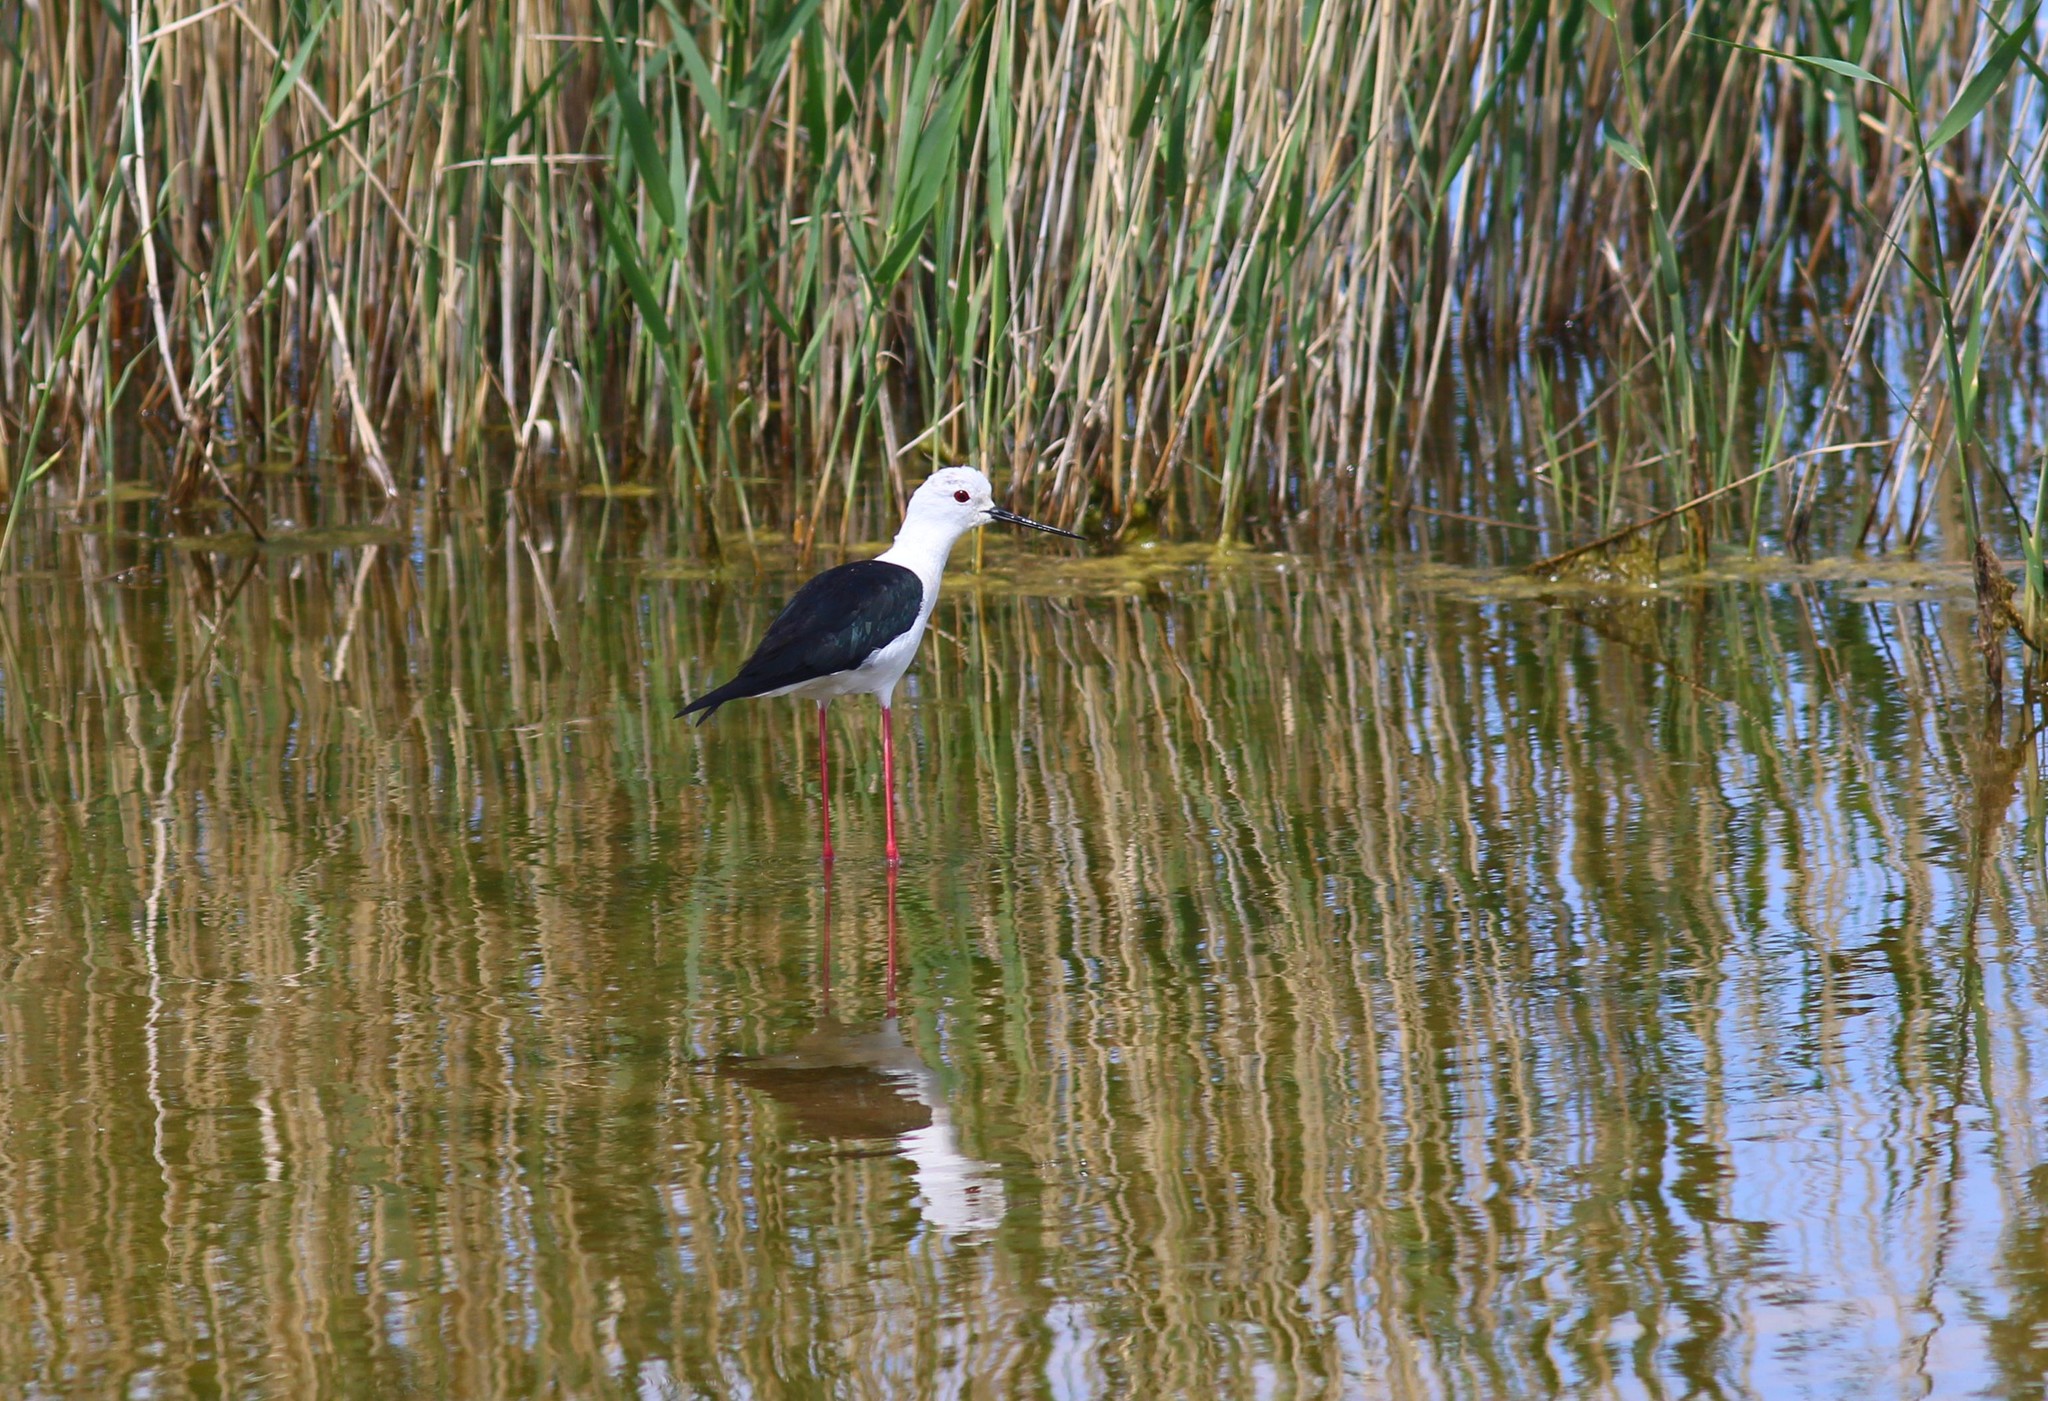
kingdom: Animalia
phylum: Chordata
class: Aves
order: Charadriiformes
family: Recurvirostridae
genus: Himantopus
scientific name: Himantopus himantopus
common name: Black-winged stilt
